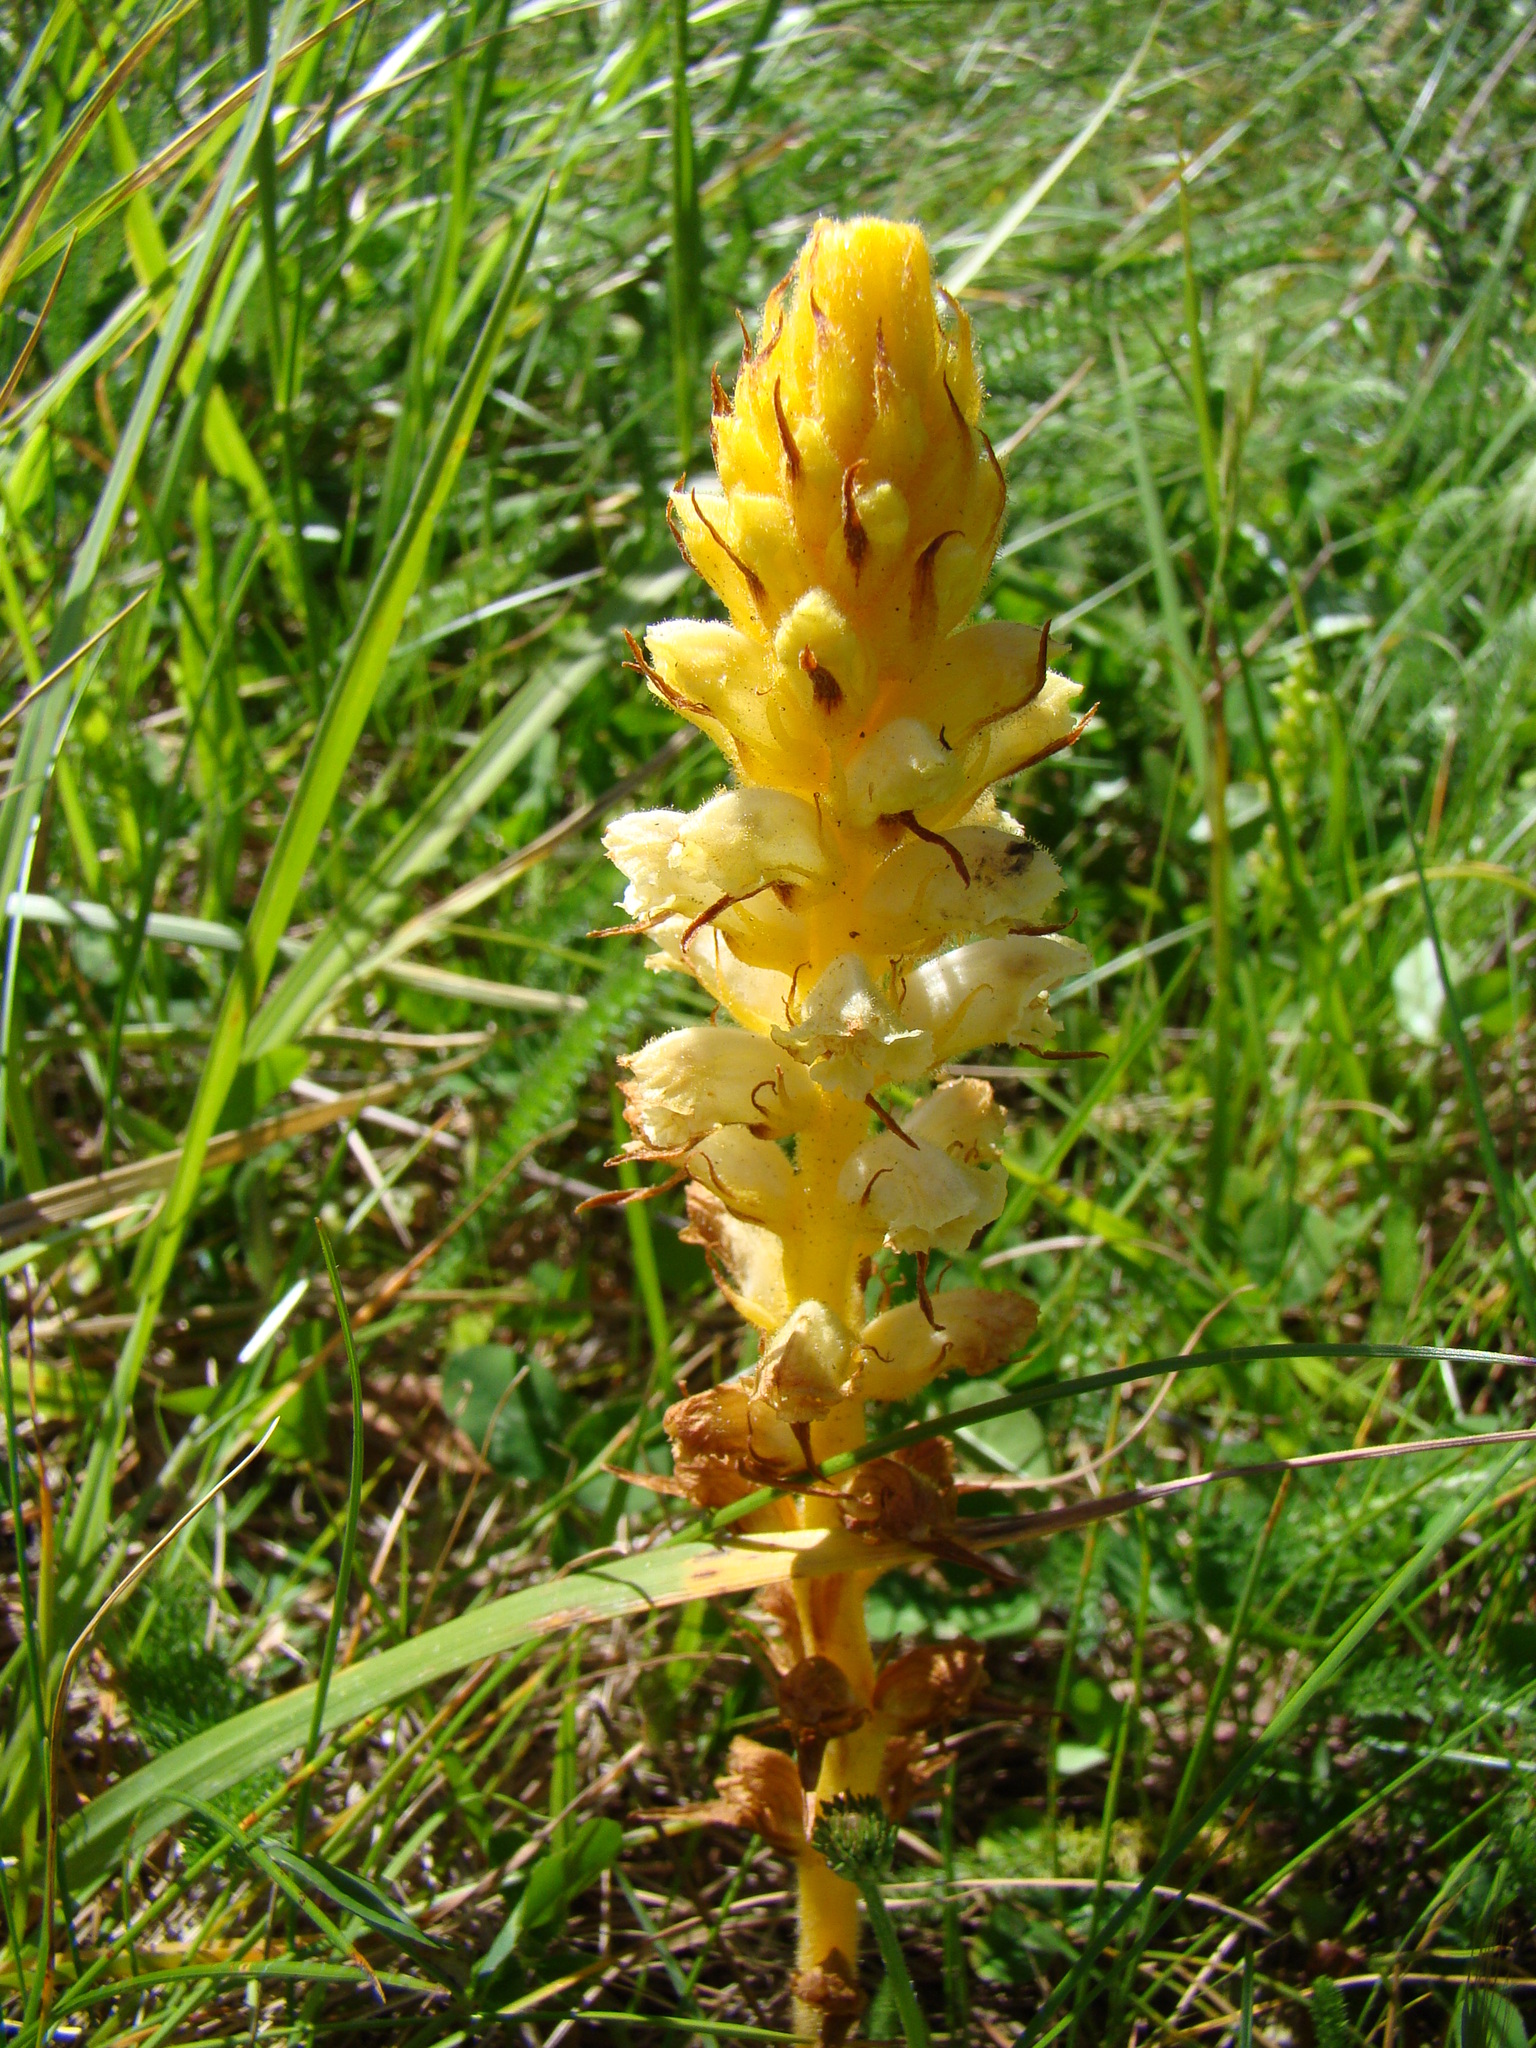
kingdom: Plantae
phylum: Tracheophyta
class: Magnoliopsida
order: Lamiales
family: Orobanchaceae
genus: Orobanche
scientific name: Orobanche minor
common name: Common broomrape
